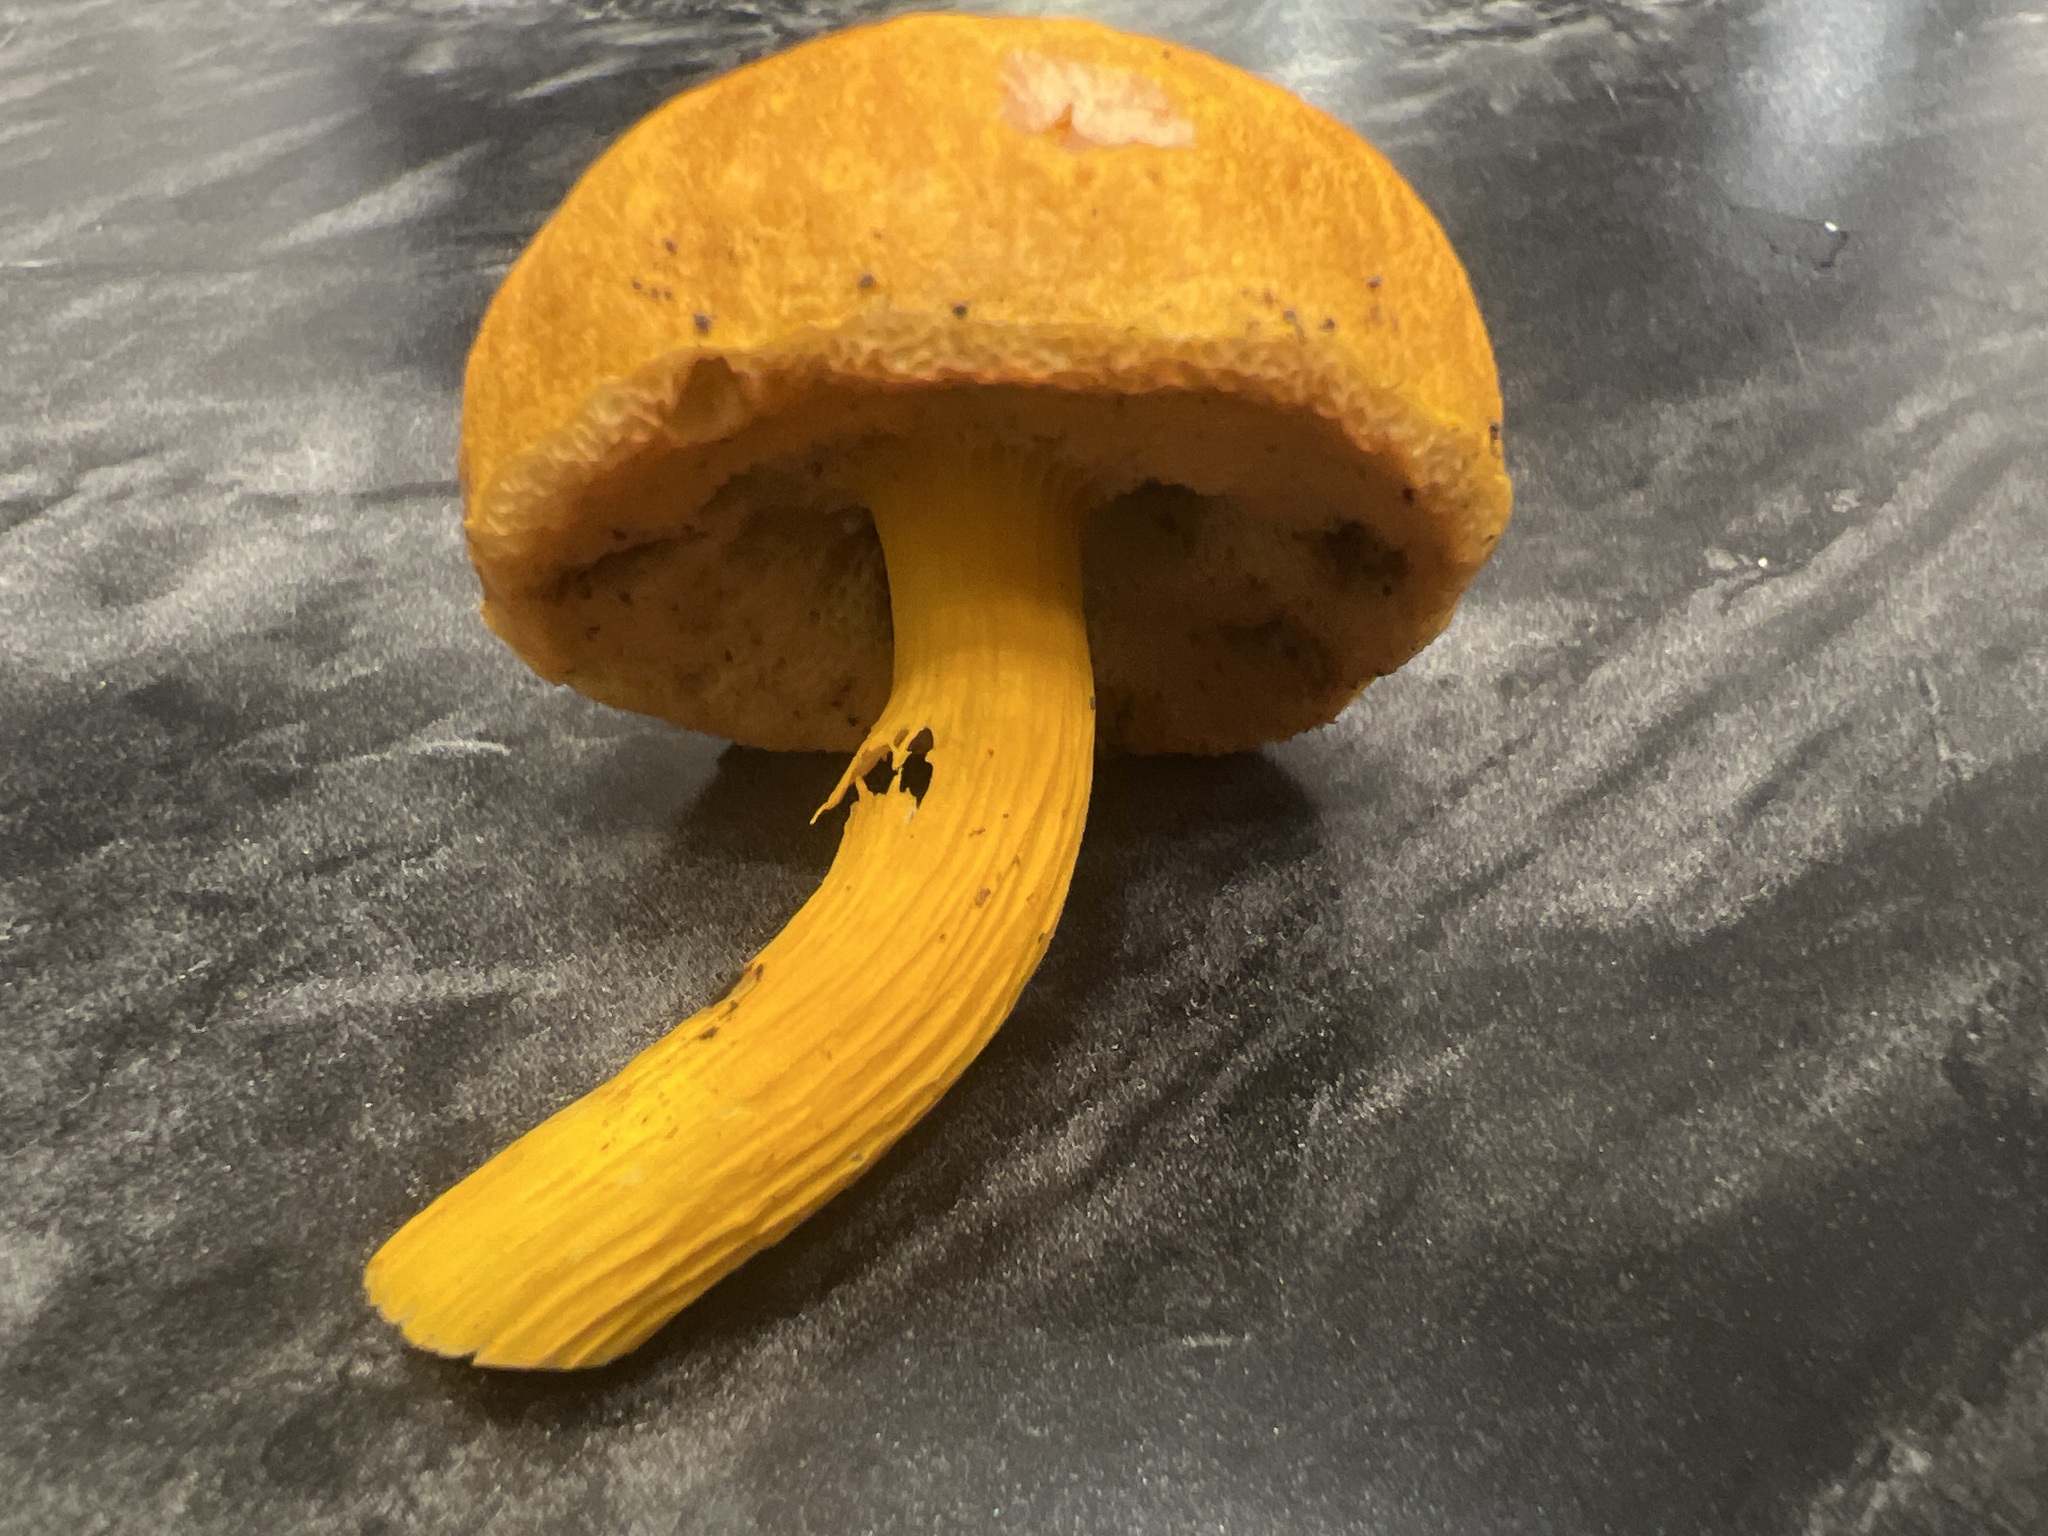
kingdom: Fungi
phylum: Basidiomycota
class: Agaricomycetes
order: Boletales
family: Boletaceae
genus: Aureoboletus
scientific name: Aureoboletus auriflammeus
